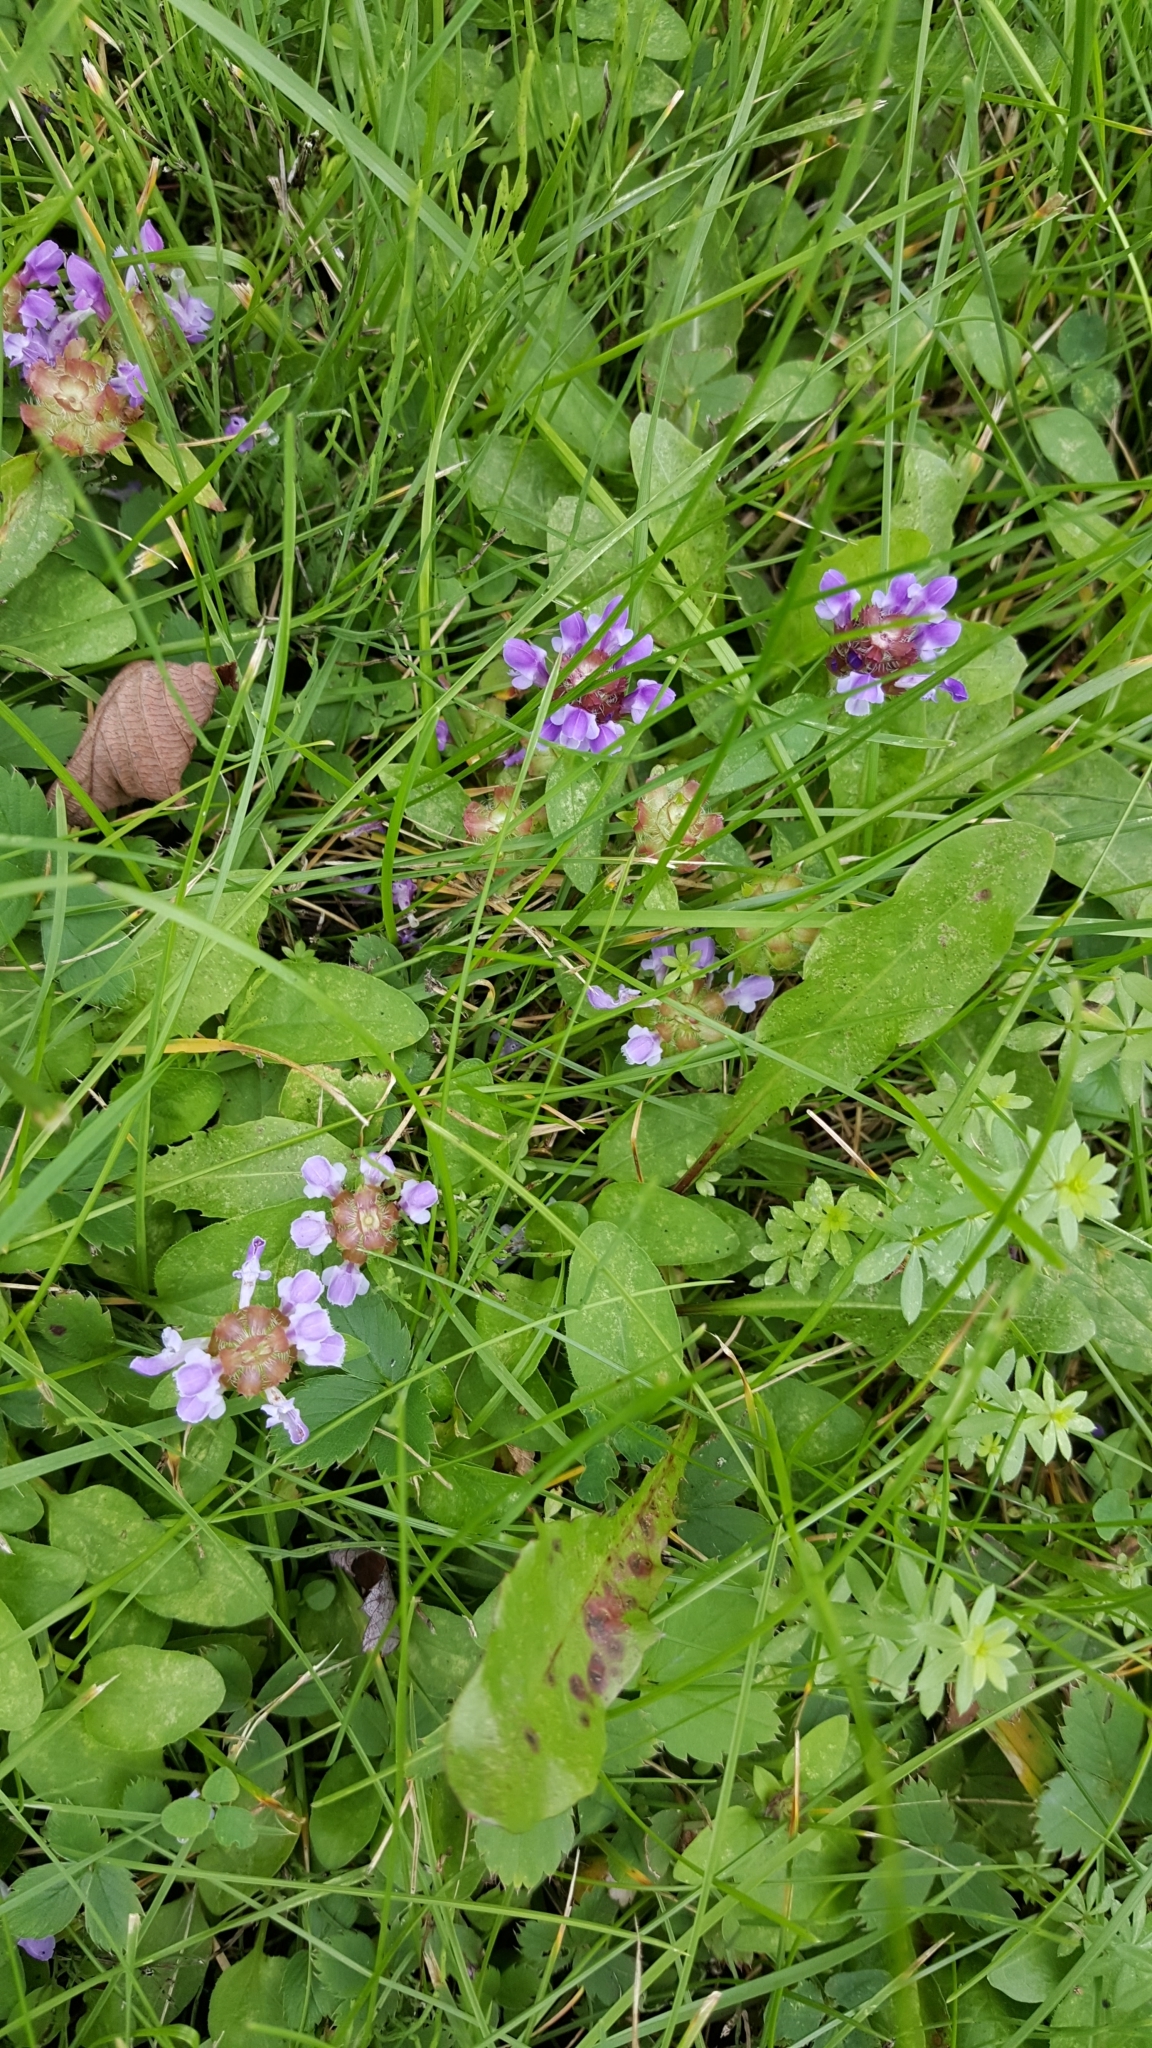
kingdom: Plantae
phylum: Tracheophyta
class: Magnoliopsida
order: Lamiales
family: Lamiaceae
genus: Prunella
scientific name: Prunella vulgaris
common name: Heal-all
